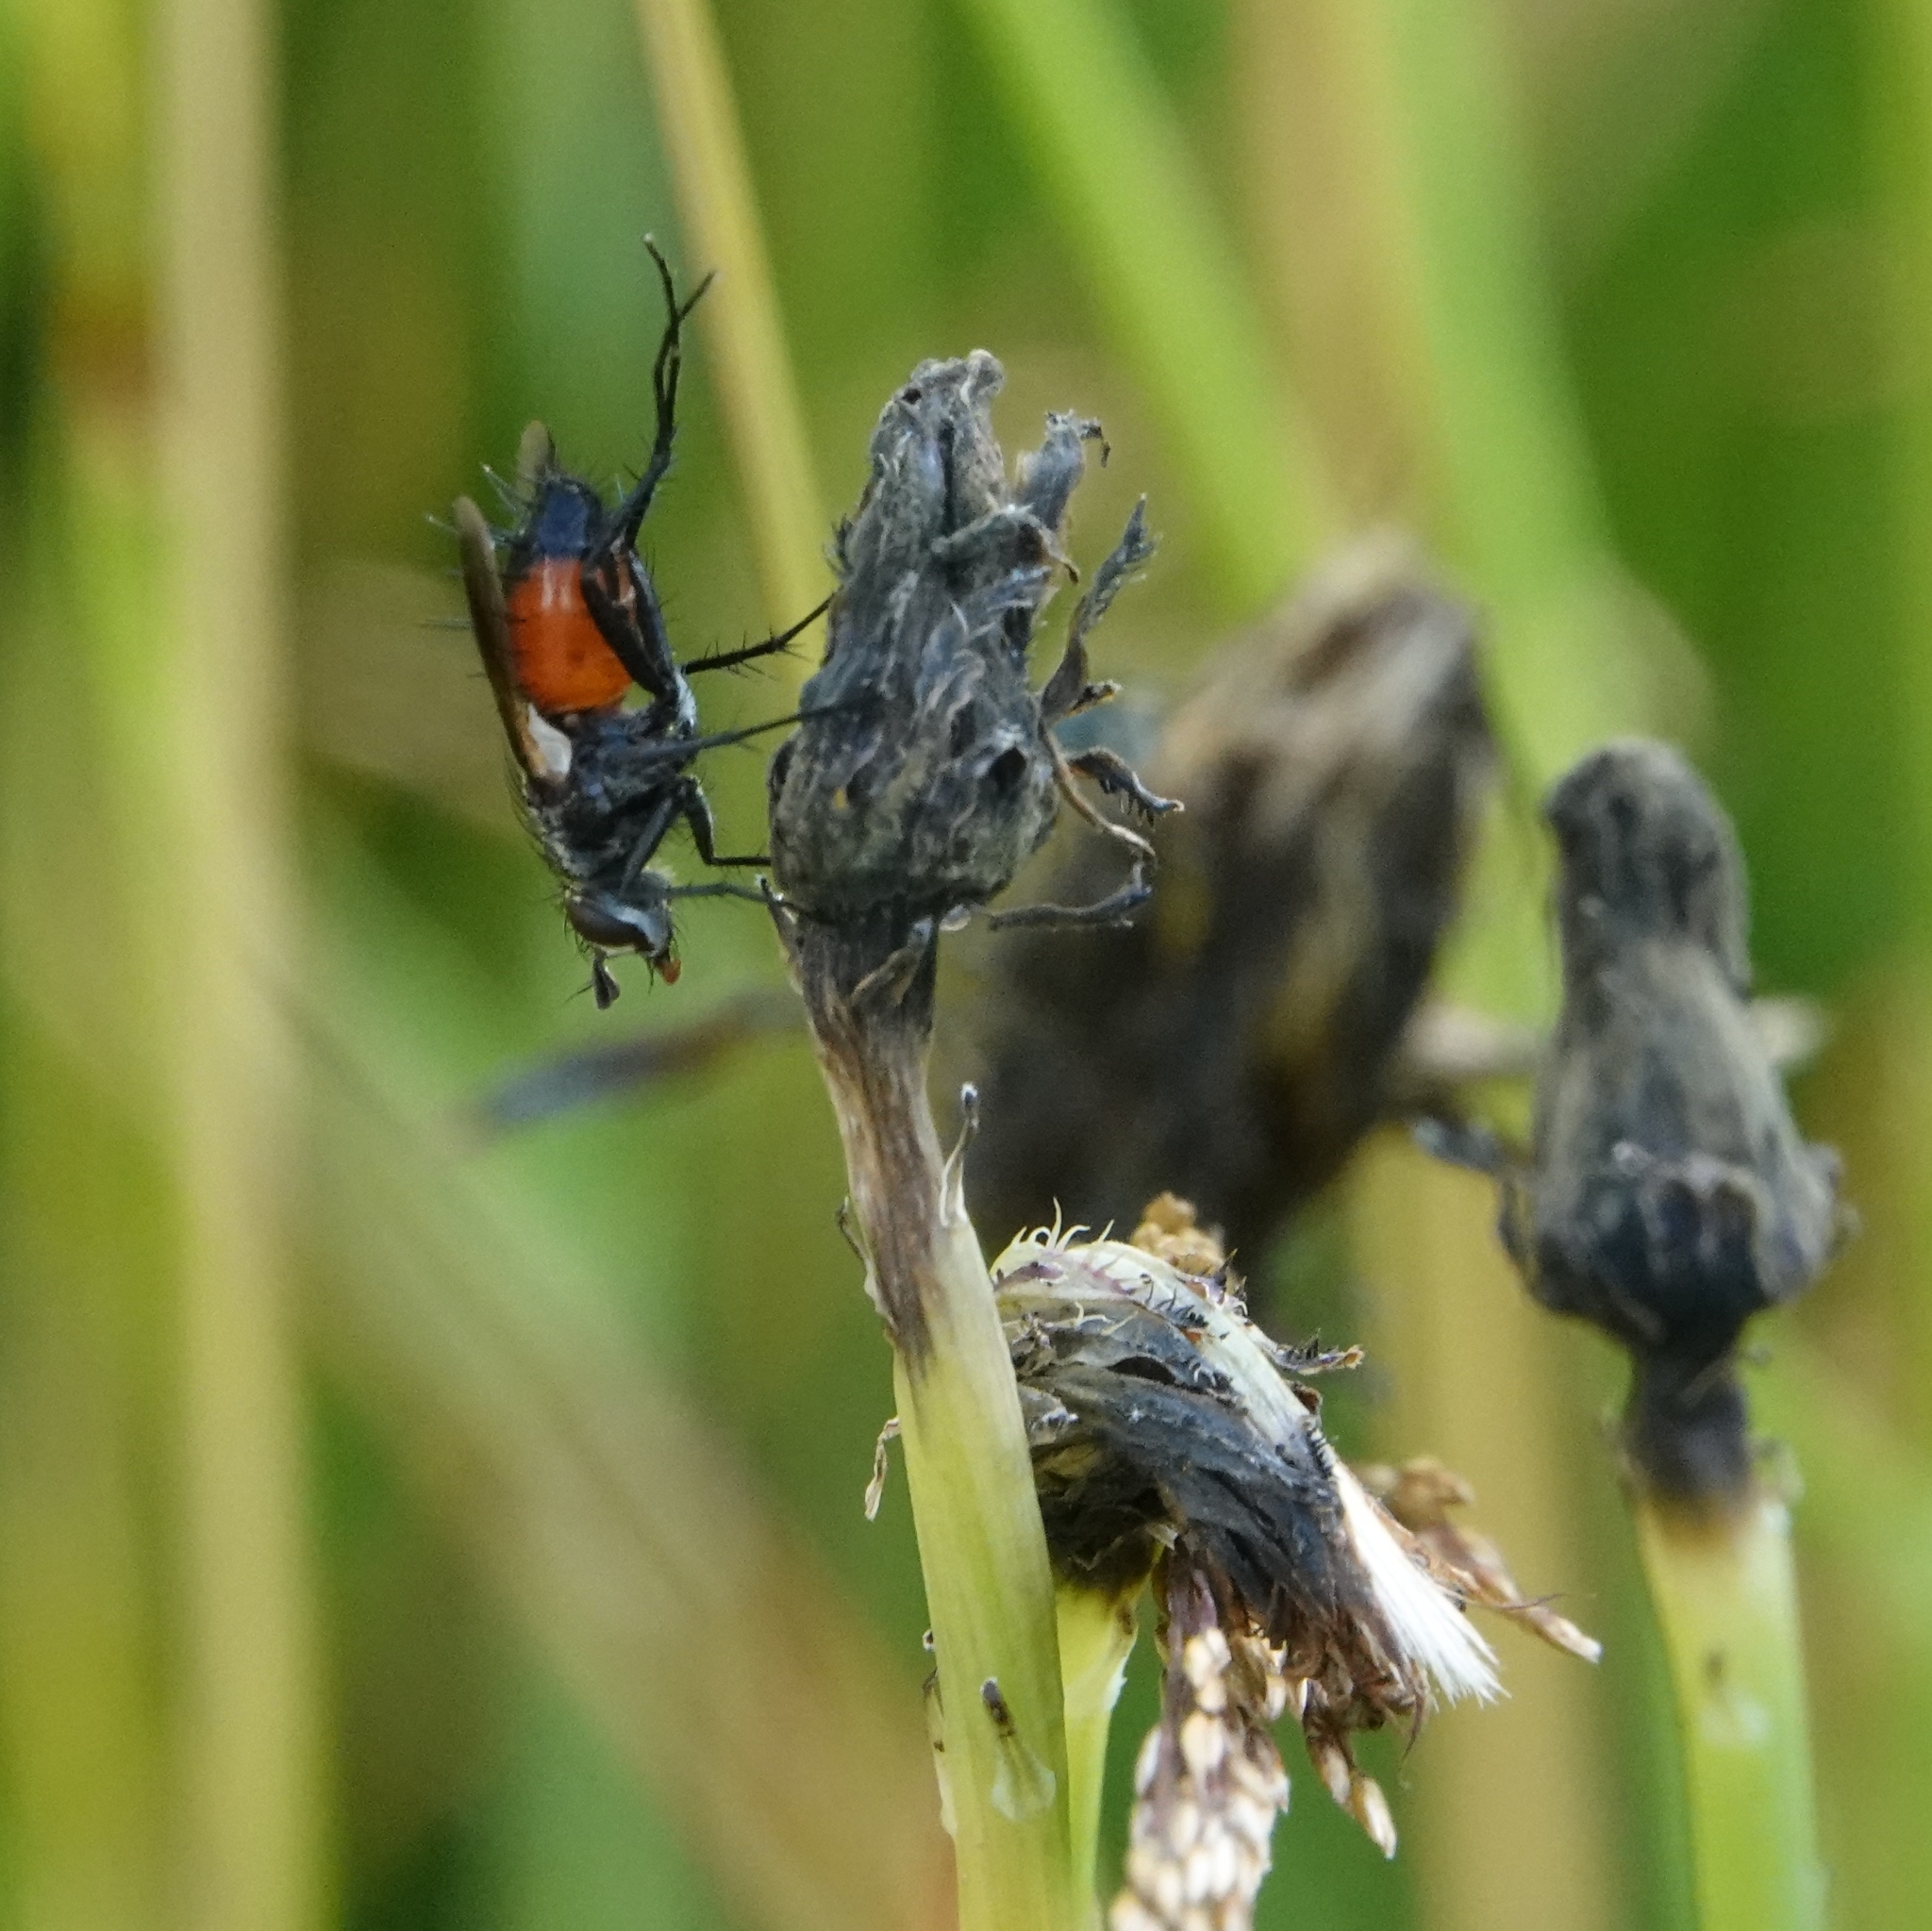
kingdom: Animalia
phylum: Arthropoda
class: Insecta
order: Diptera
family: Tachinidae
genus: Eriothrix
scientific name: Eriothrix rufomaculatus
